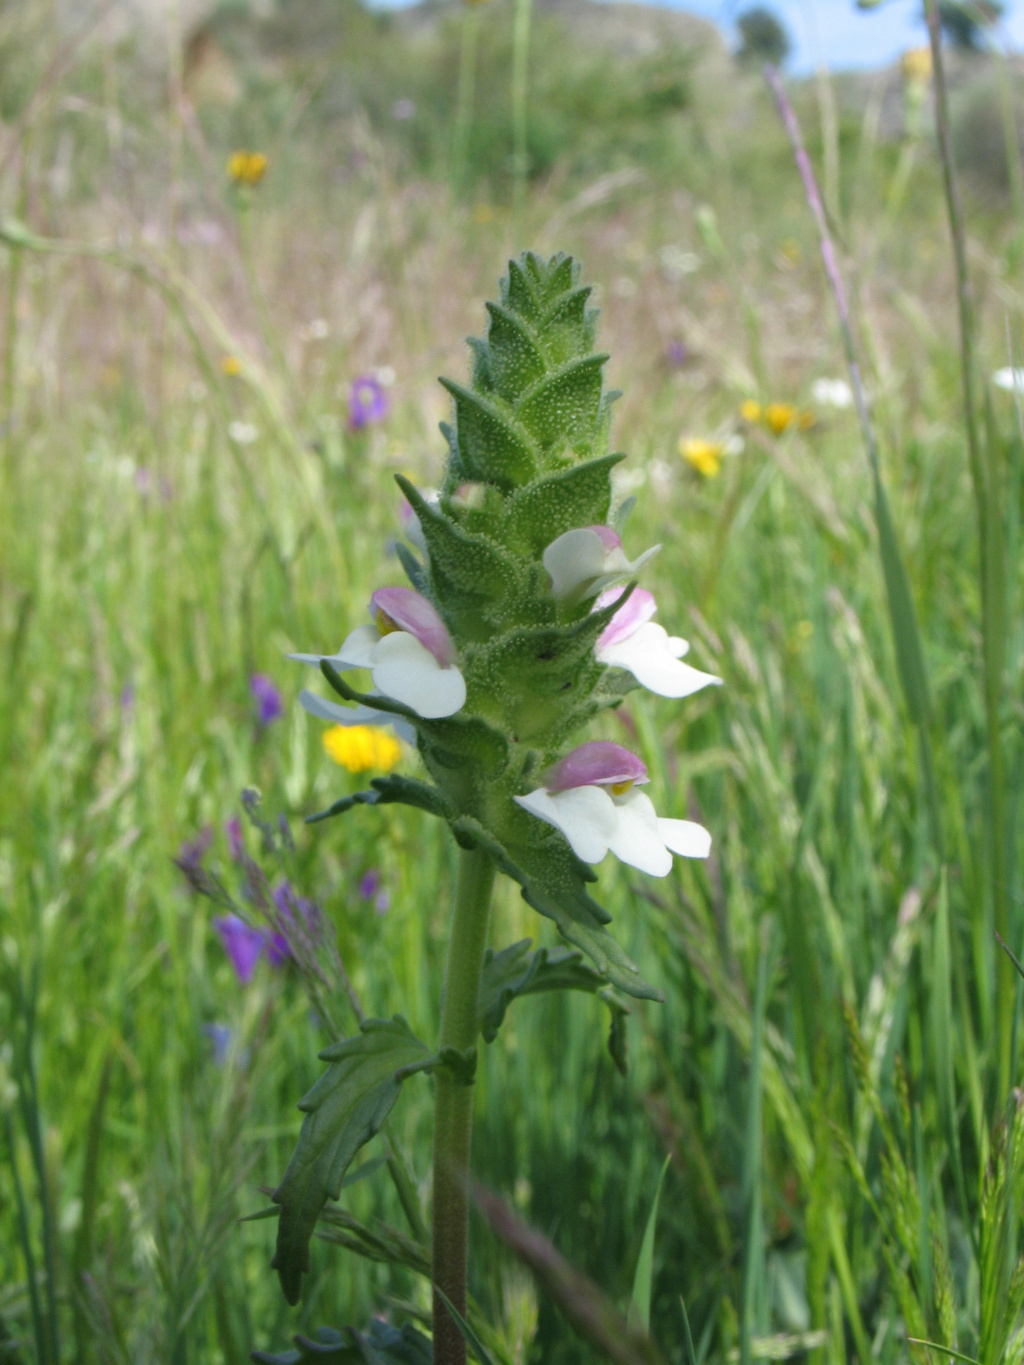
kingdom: Plantae
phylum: Tracheophyta
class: Magnoliopsida
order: Lamiales
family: Orobanchaceae
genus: Bellardia
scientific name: Bellardia trixago
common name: Mediterranean lineseed
